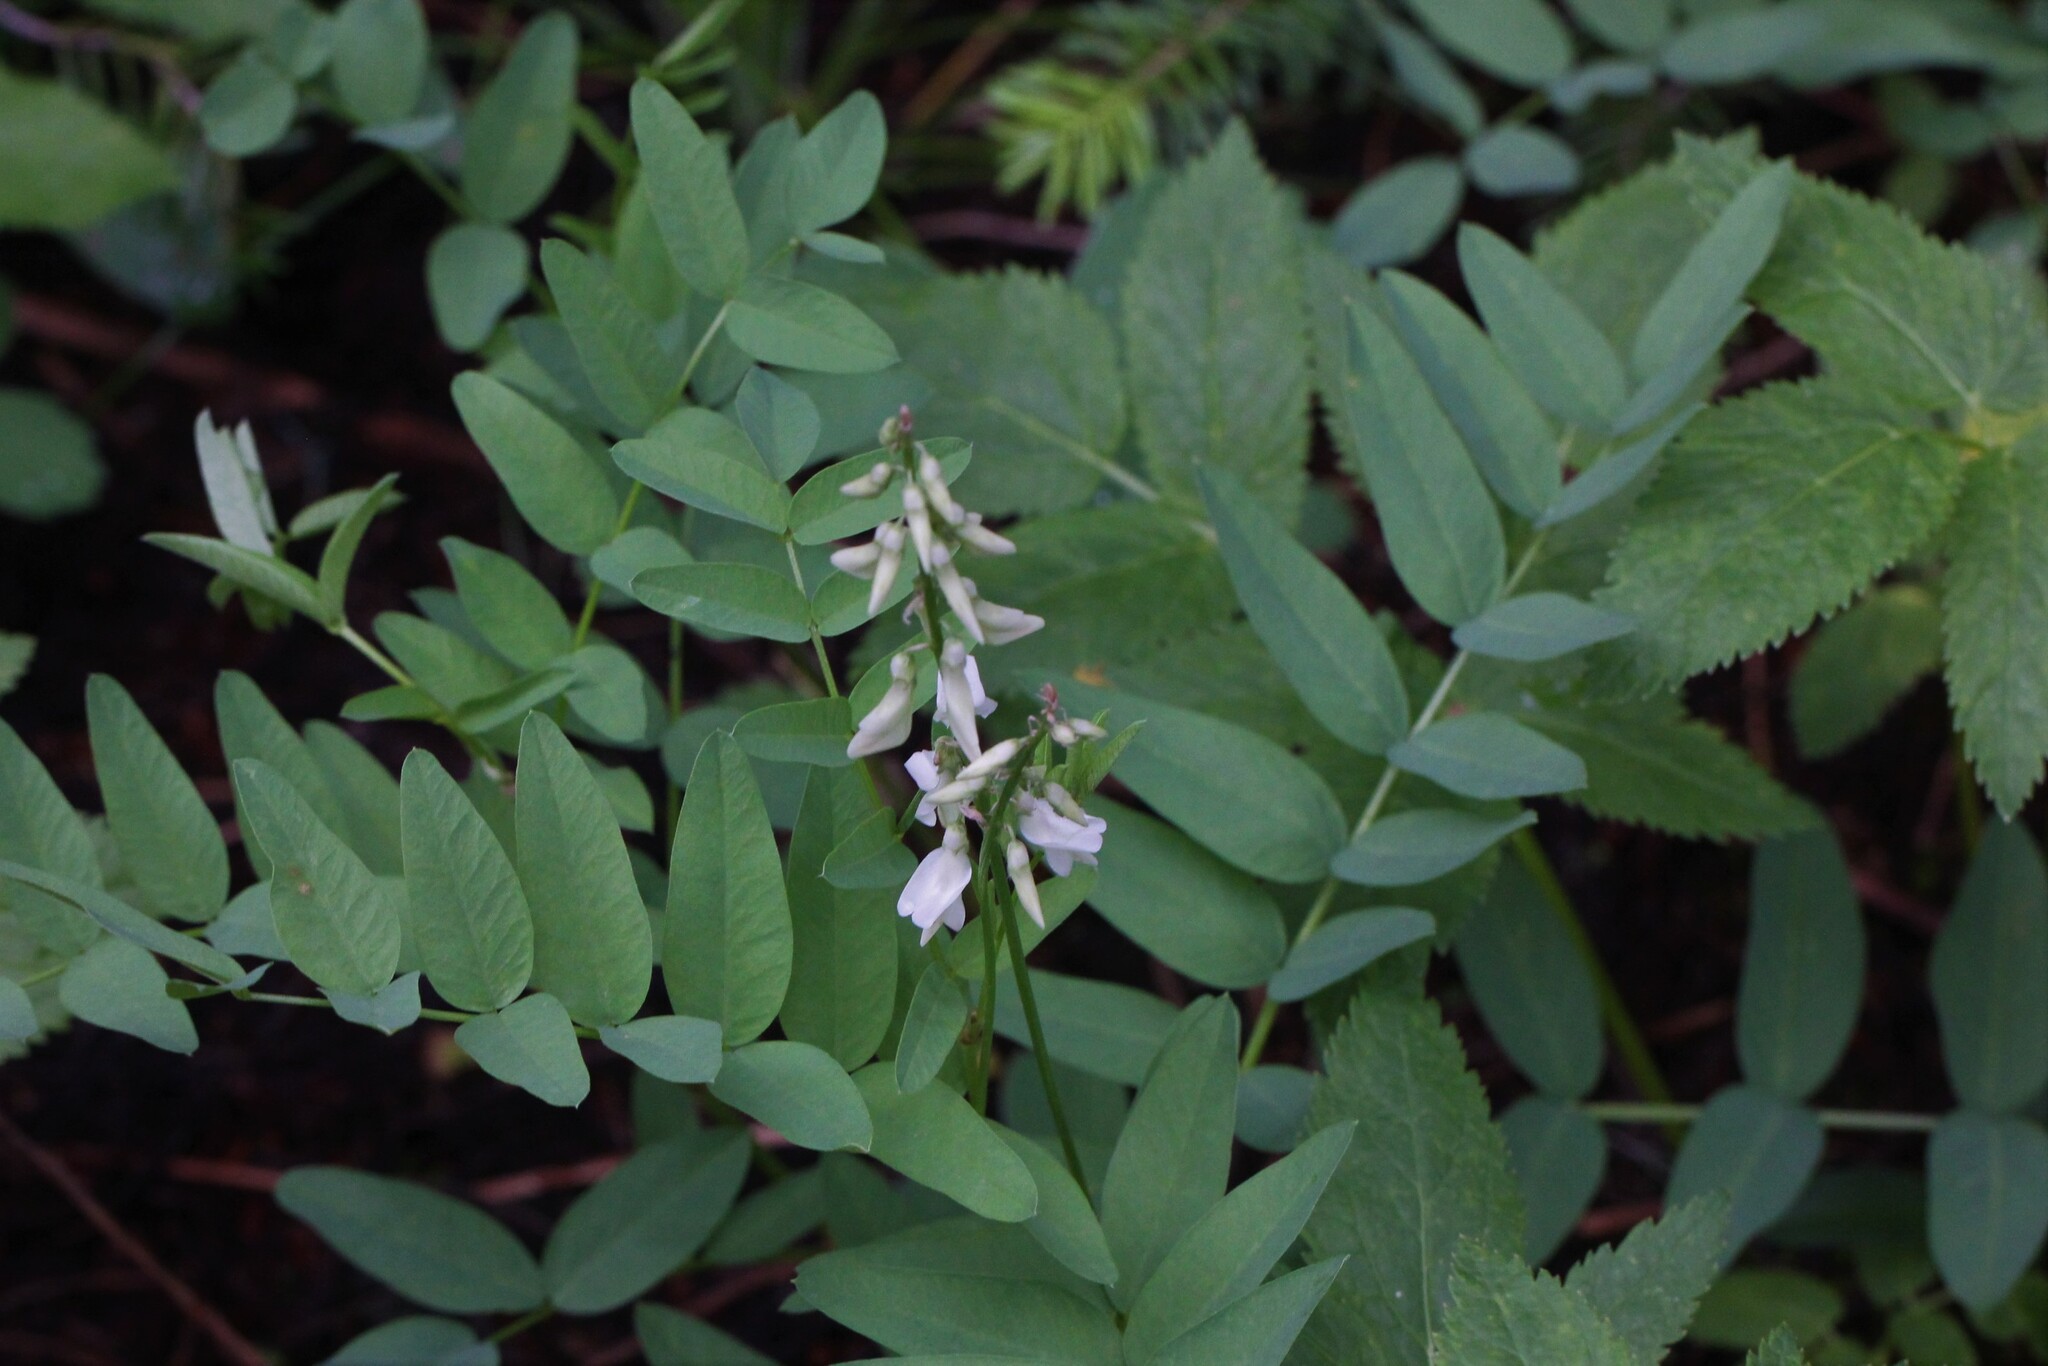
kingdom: Plantae
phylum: Tracheophyta
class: Magnoliopsida
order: Fabales
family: Fabaceae
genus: Hedysarum
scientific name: Hedysarum sulphurescens
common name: Sulphur hedysarum
